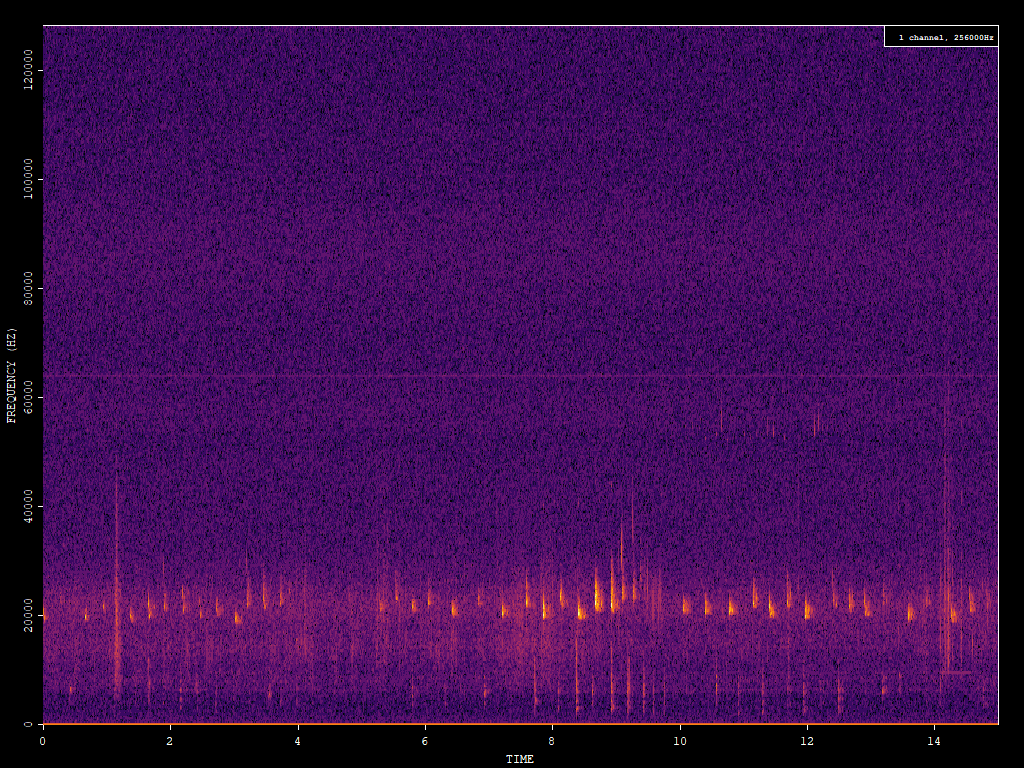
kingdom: Animalia
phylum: Chordata
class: Mammalia
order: Chiroptera
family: Vespertilionidae
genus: Nyctalus
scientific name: Nyctalus noctula
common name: Noctule
